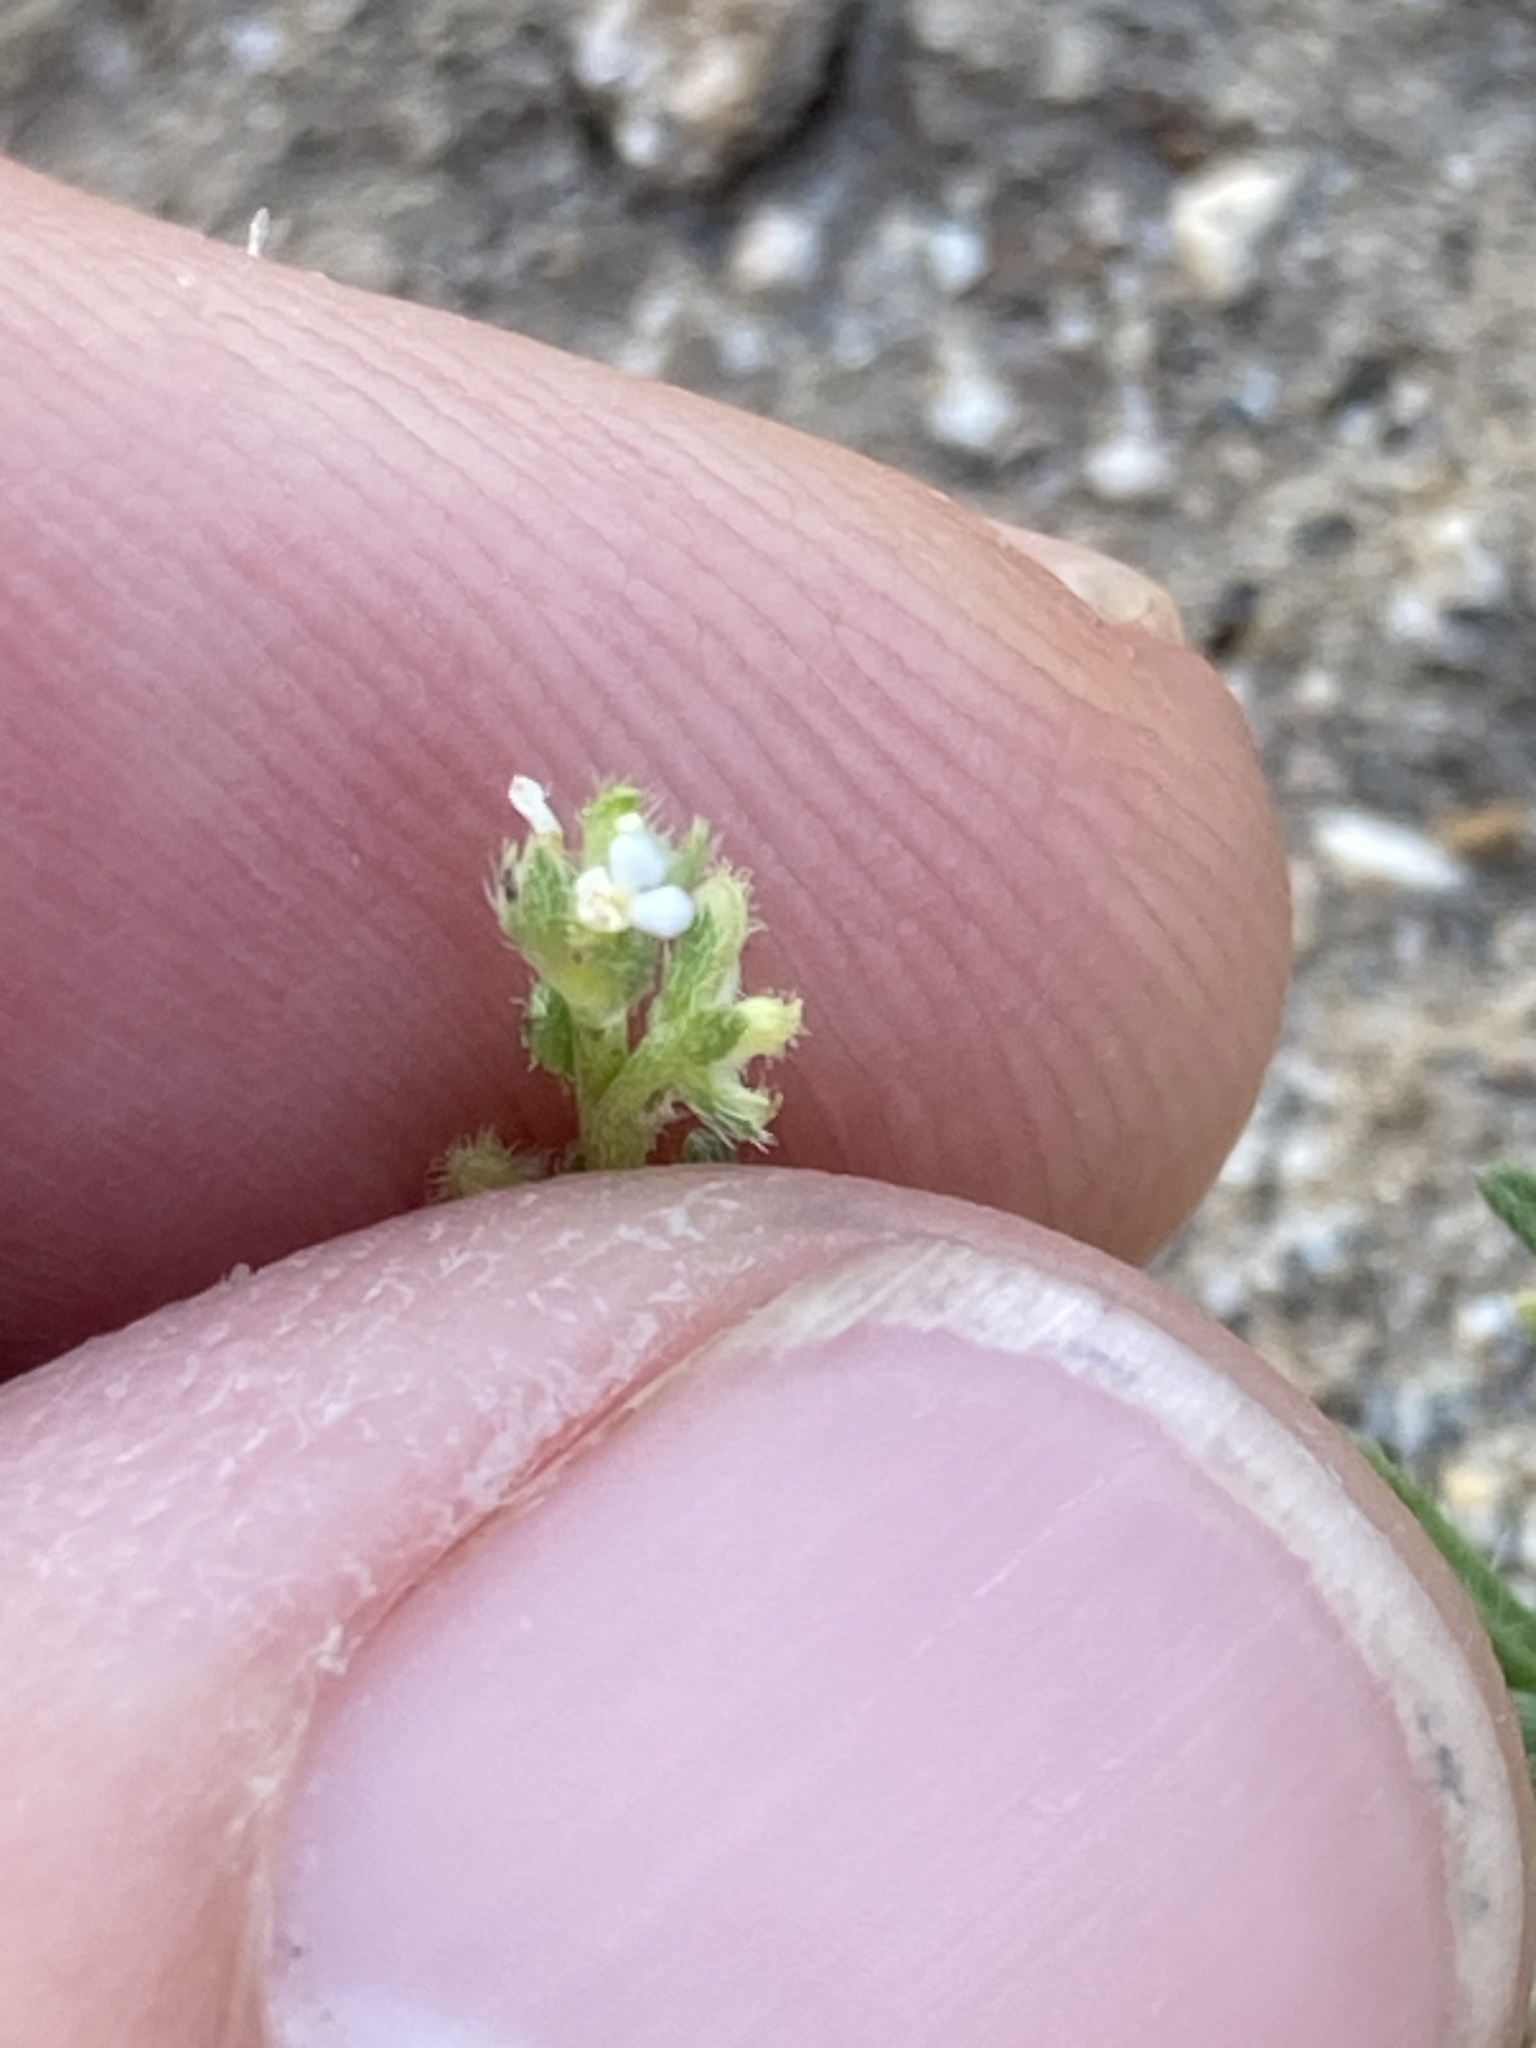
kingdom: Plantae
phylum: Tracheophyta
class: Magnoliopsida
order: Boraginales
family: Boraginaceae
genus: Pectocarya
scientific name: Pectocarya penicillata
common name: Short-leaved combseed
